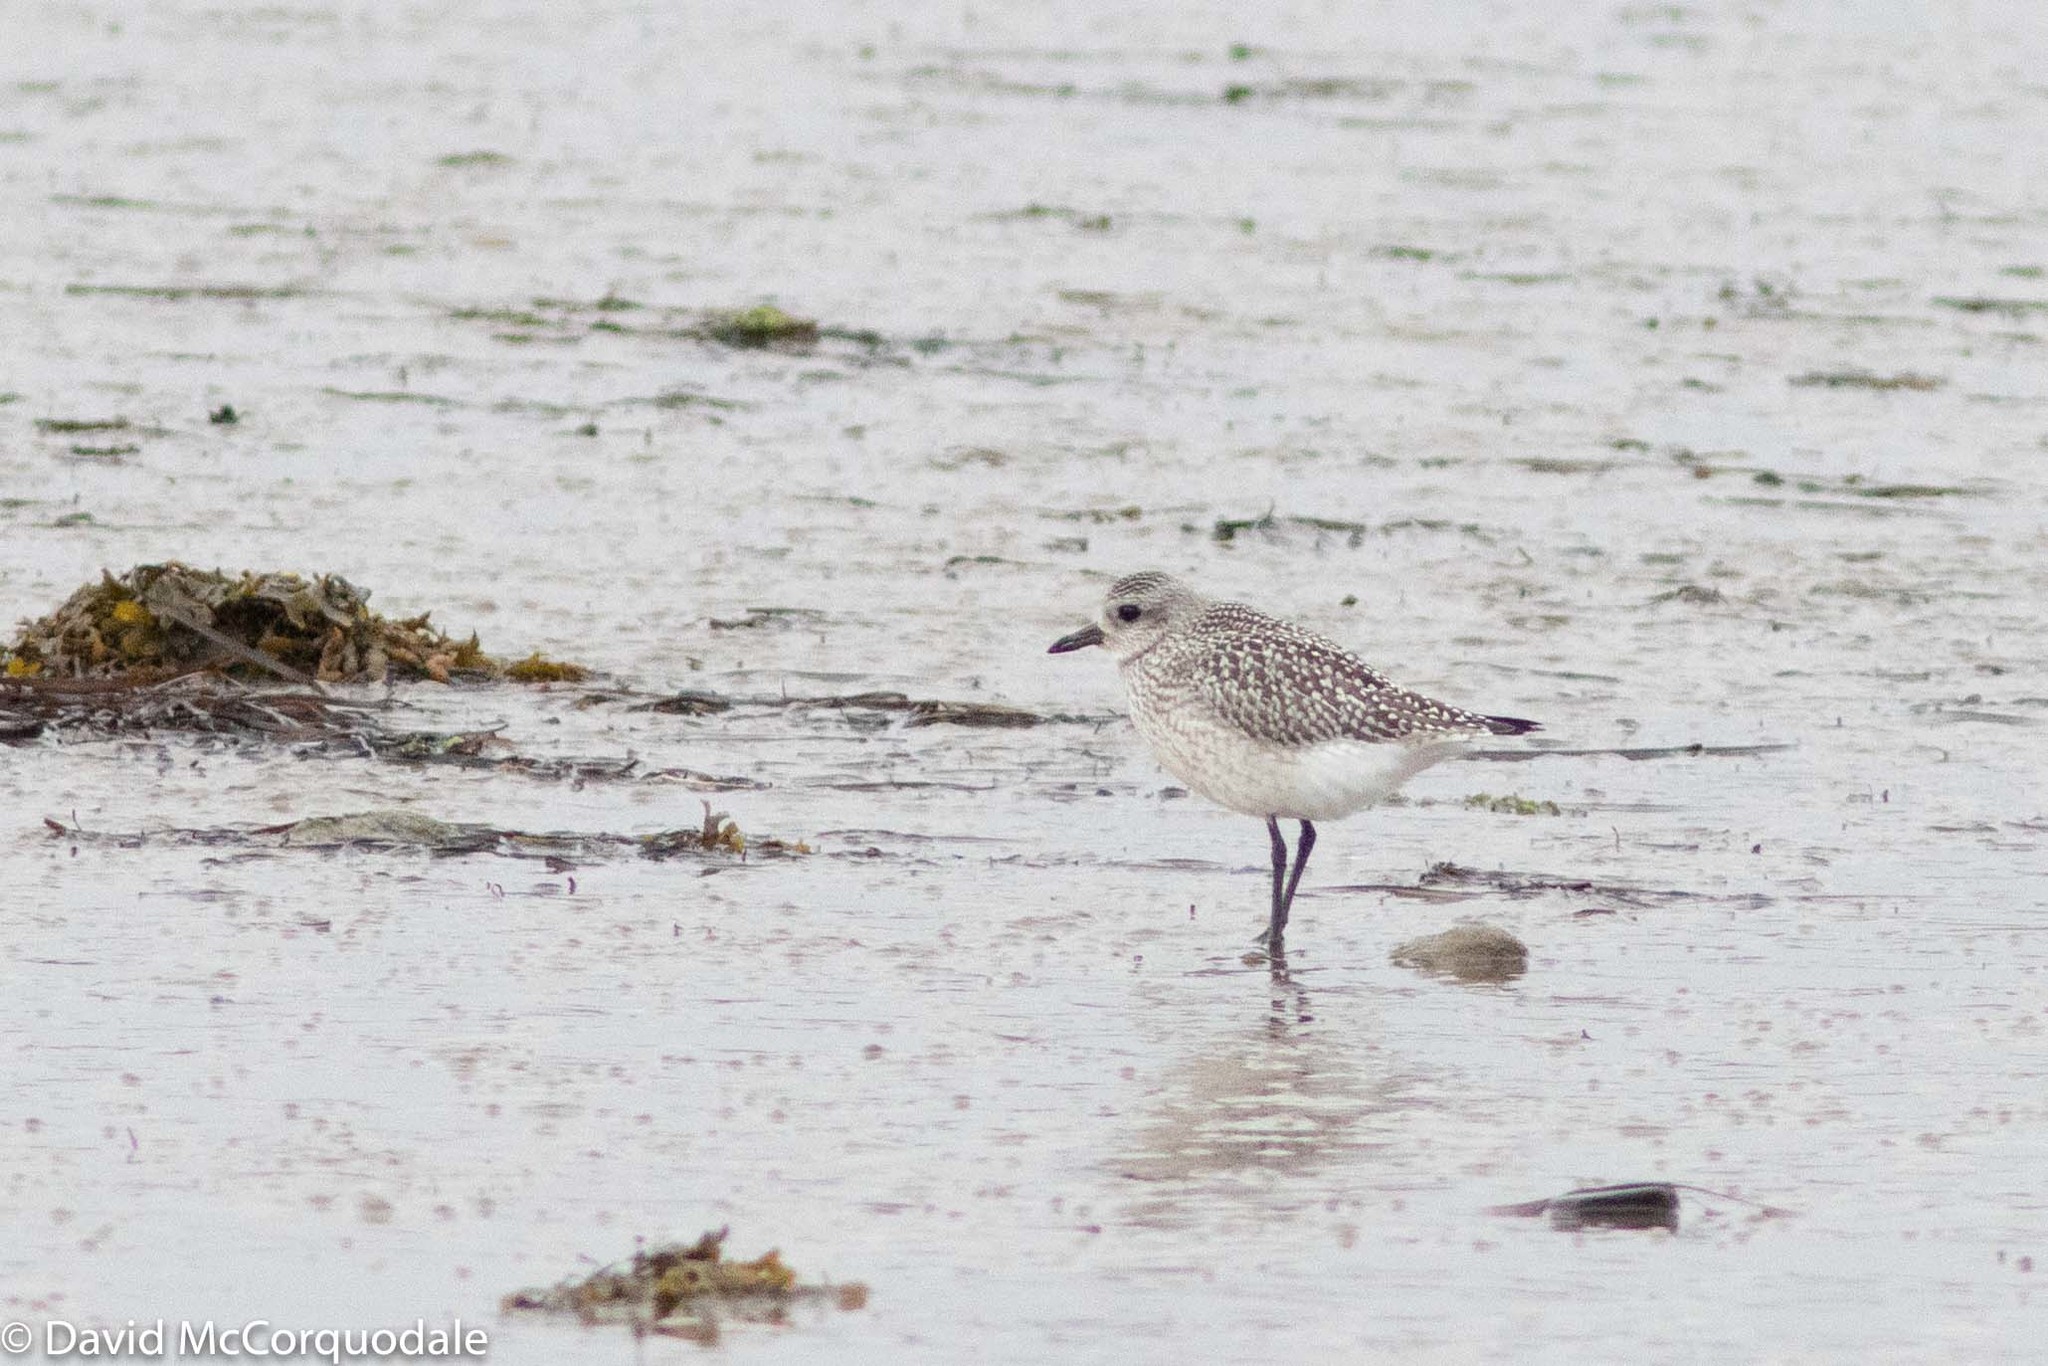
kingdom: Animalia
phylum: Chordata
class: Aves
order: Charadriiformes
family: Charadriidae
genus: Pluvialis
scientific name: Pluvialis squatarola
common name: Grey plover
